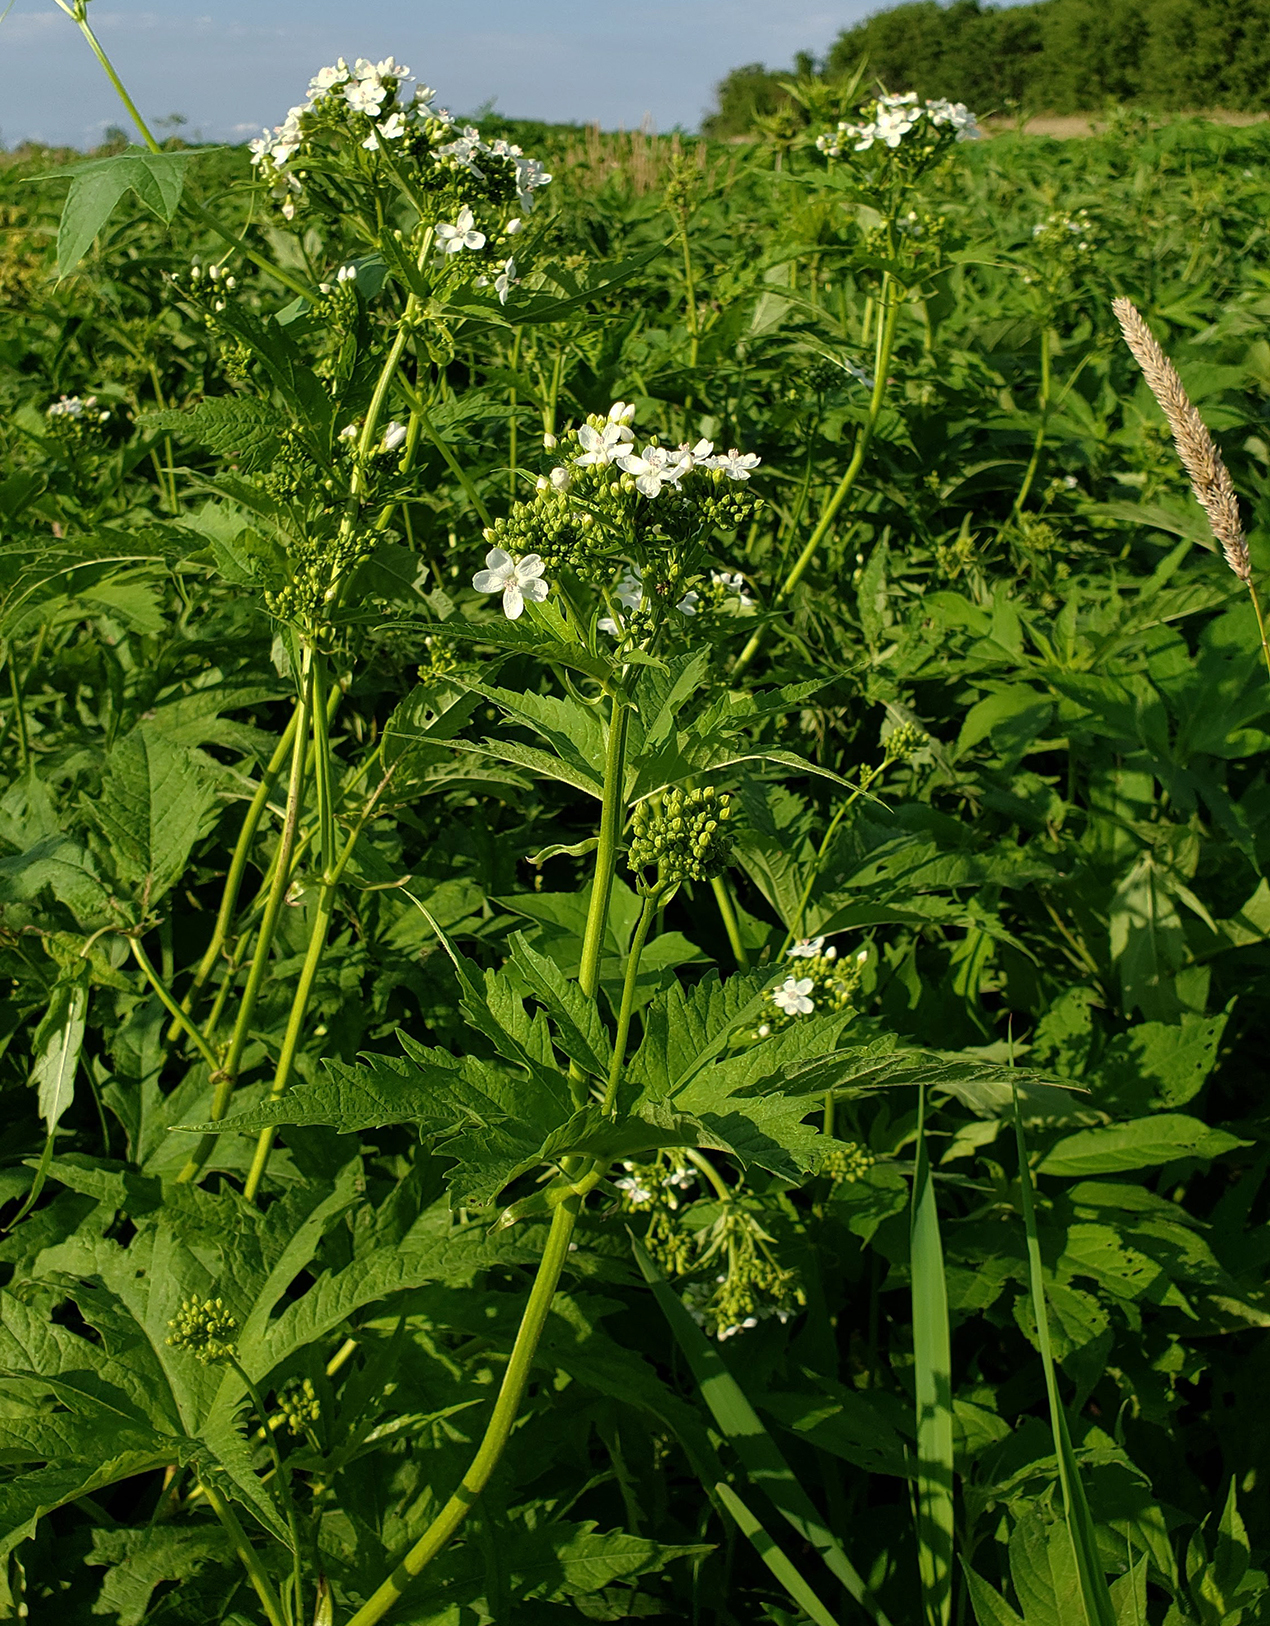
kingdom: Plantae
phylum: Tracheophyta
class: Magnoliopsida
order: Malvales
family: Malvaceae
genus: Napaea
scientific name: Napaea dioica
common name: Glade-mallow
